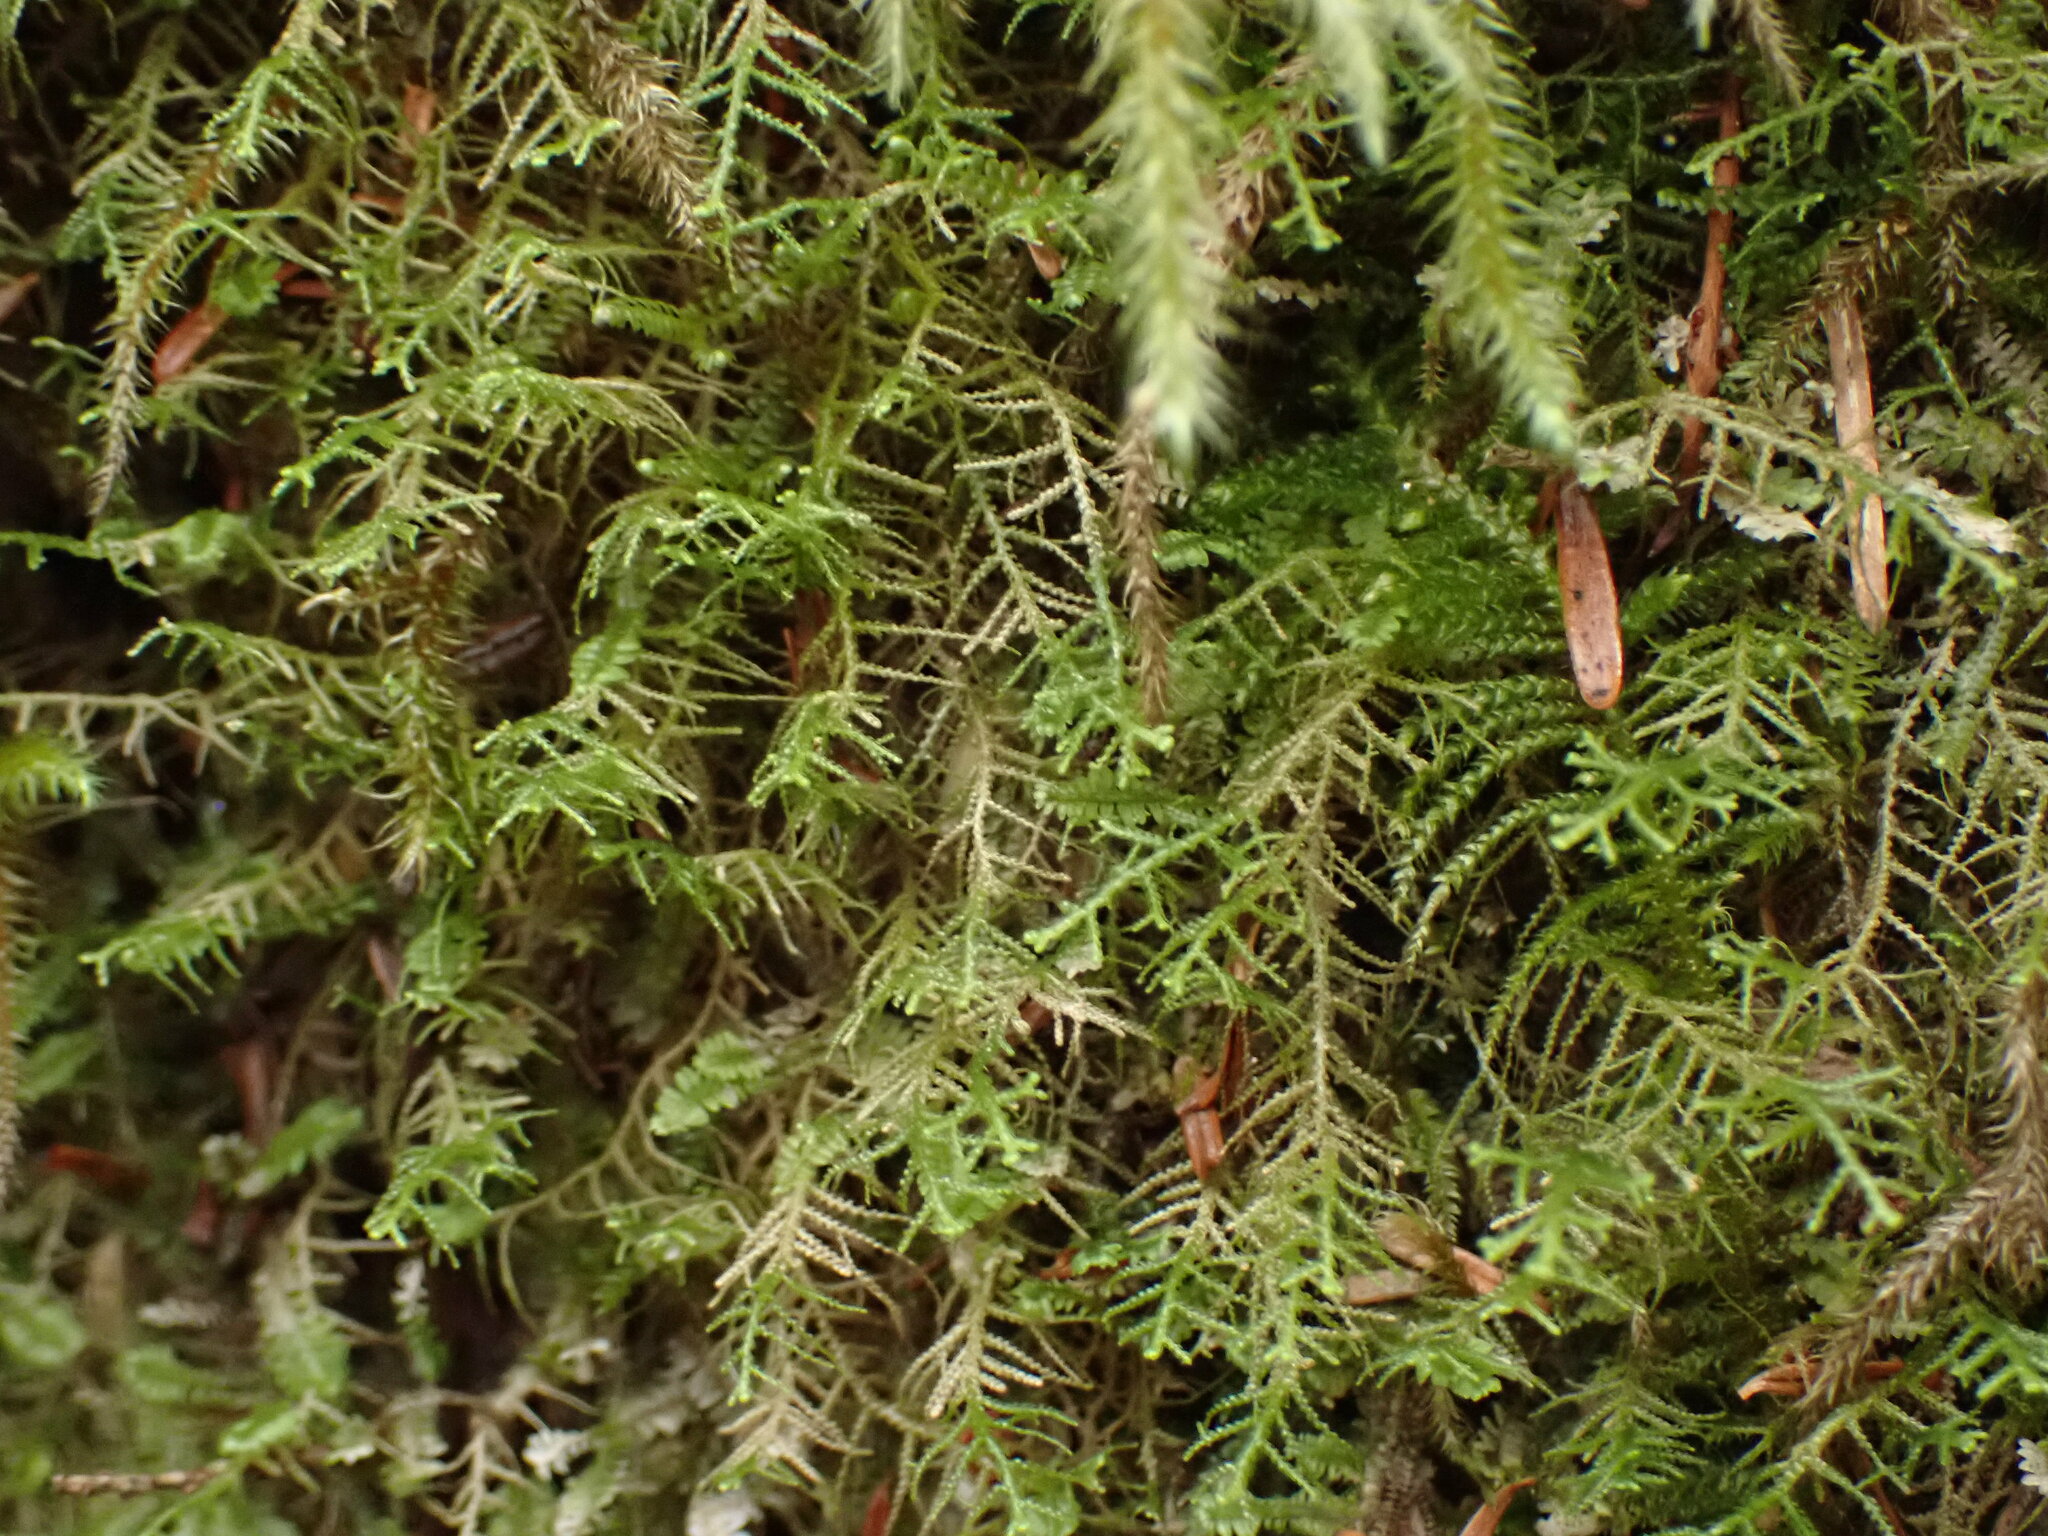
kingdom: Plantae
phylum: Marchantiophyta
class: Jungermanniopsida
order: Jungermanniales
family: Lepidoziaceae
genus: Lepidozia
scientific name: Lepidozia filamentosa
